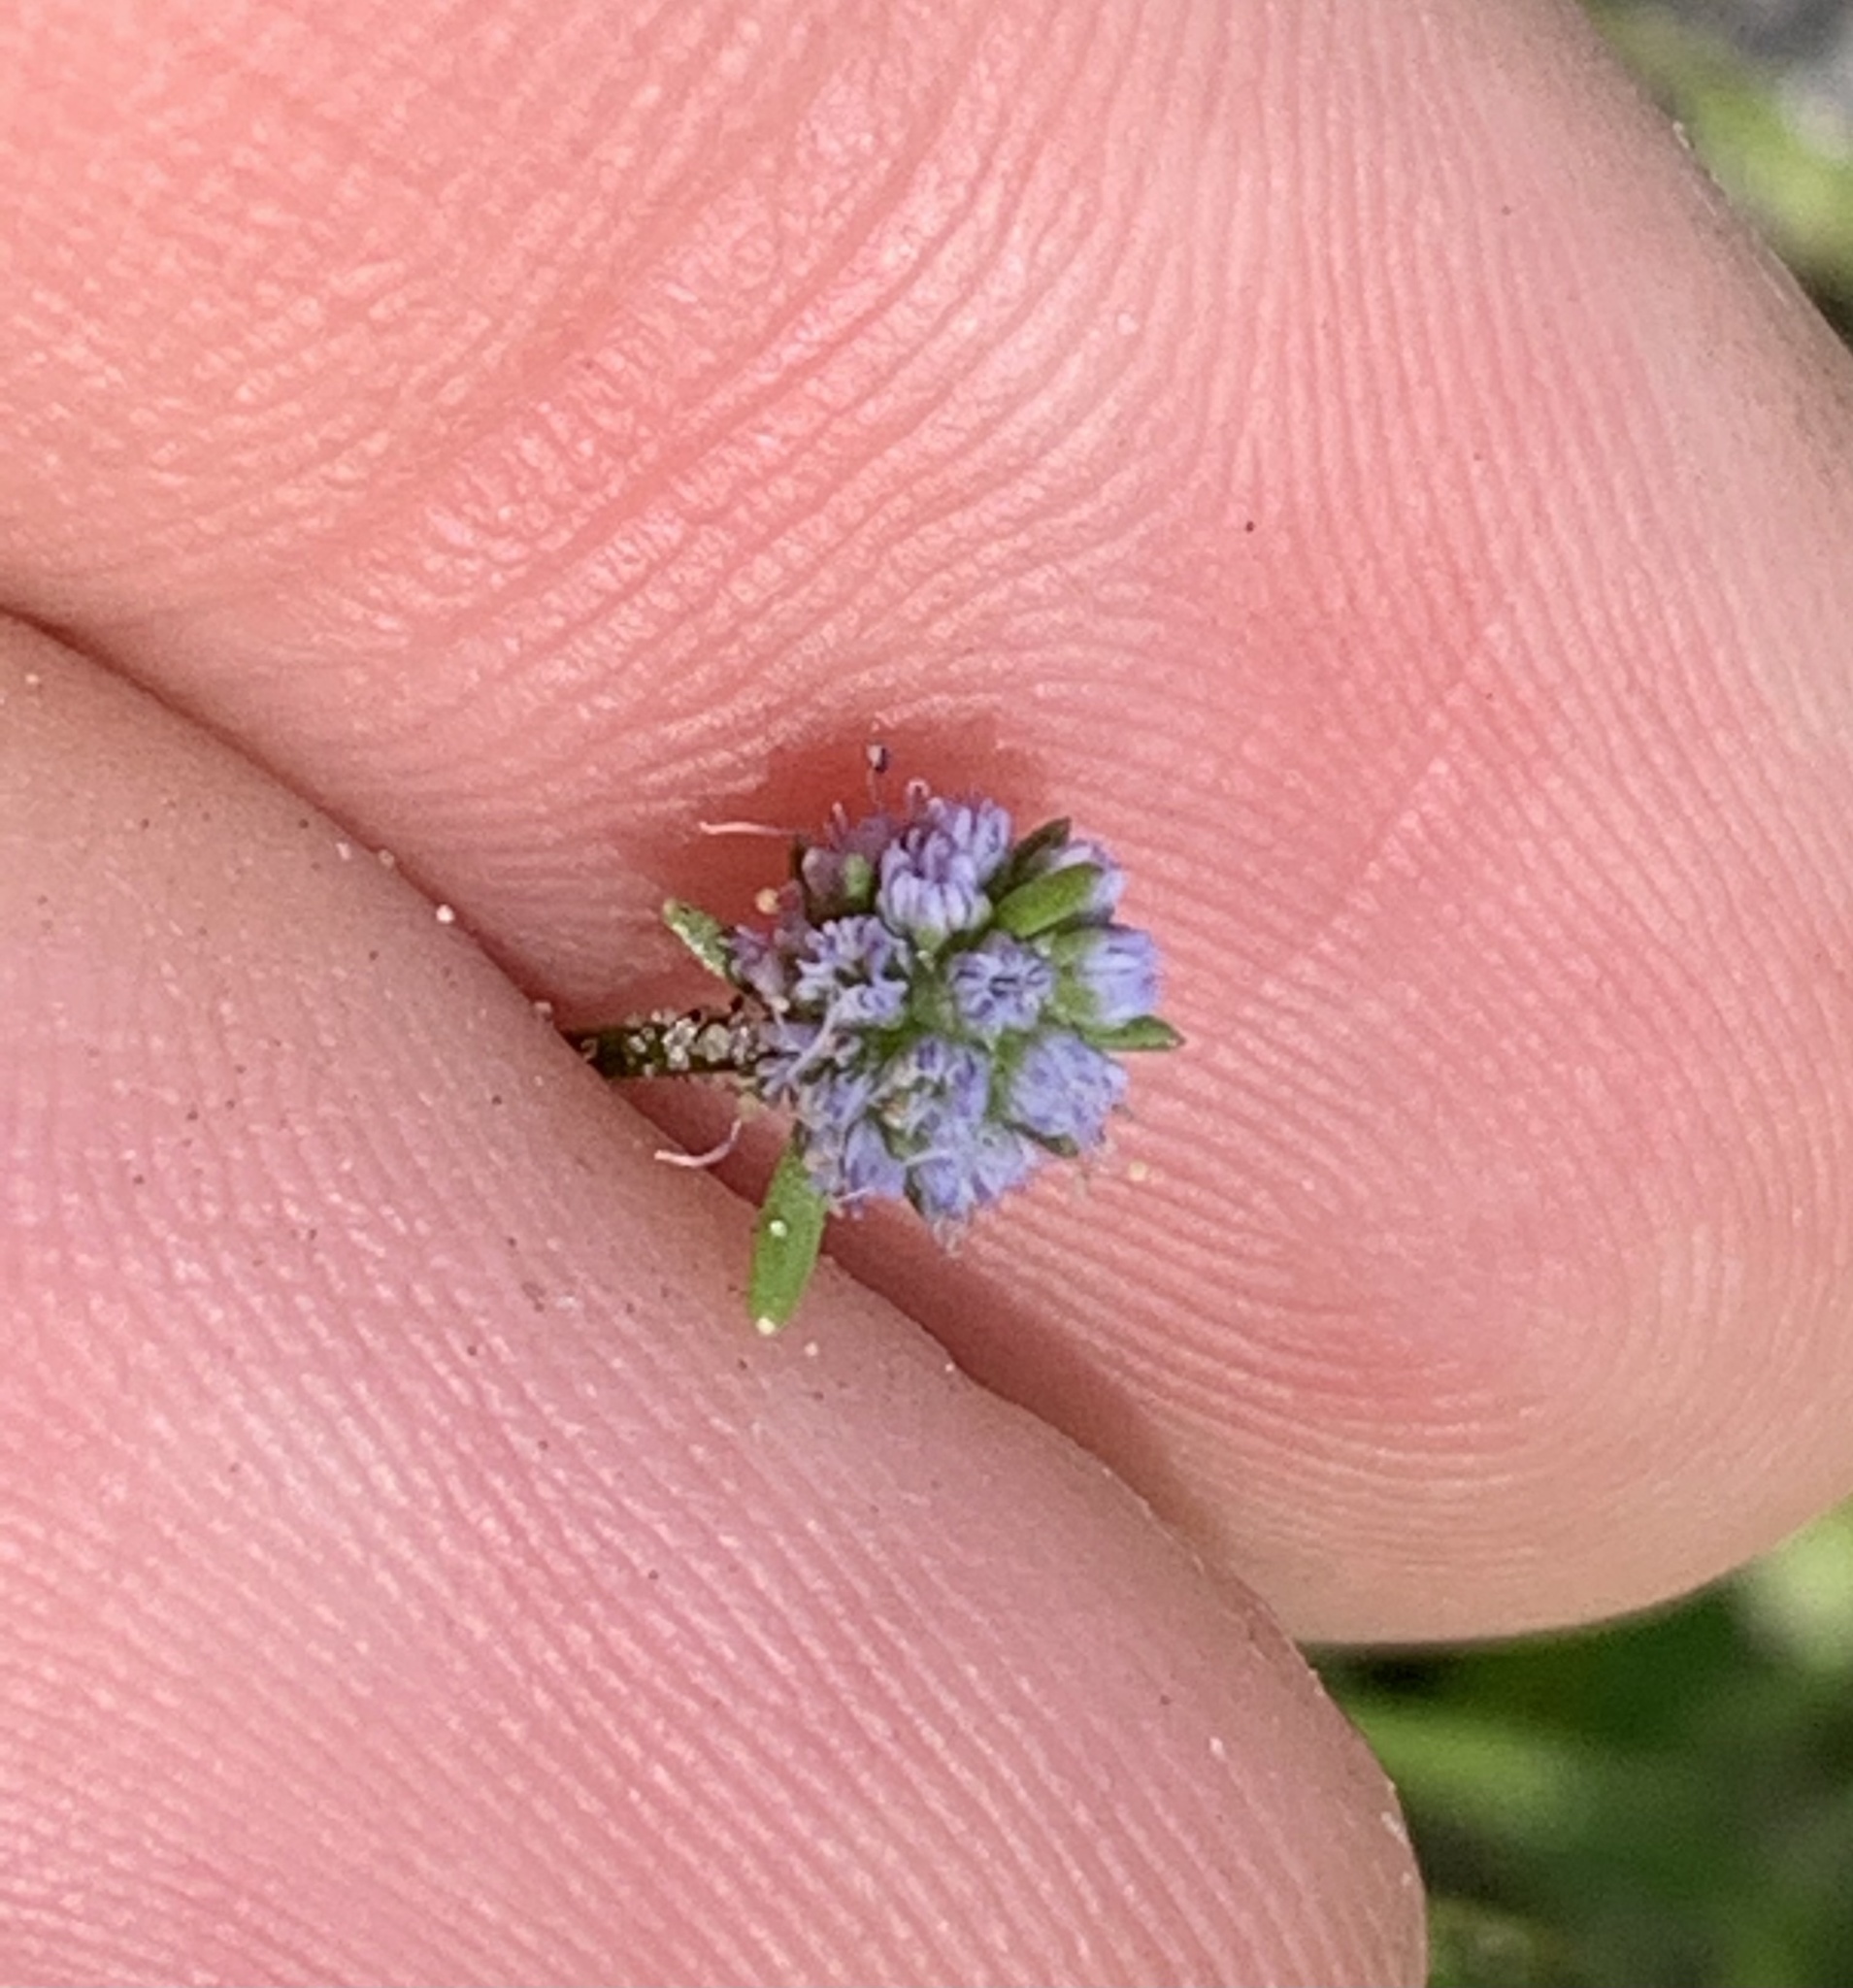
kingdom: Plantae
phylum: Tracheophyta
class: Magnoliopsida
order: Apiales
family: Apiaceae
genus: Eryngium
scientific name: Eryngium baldwinii
